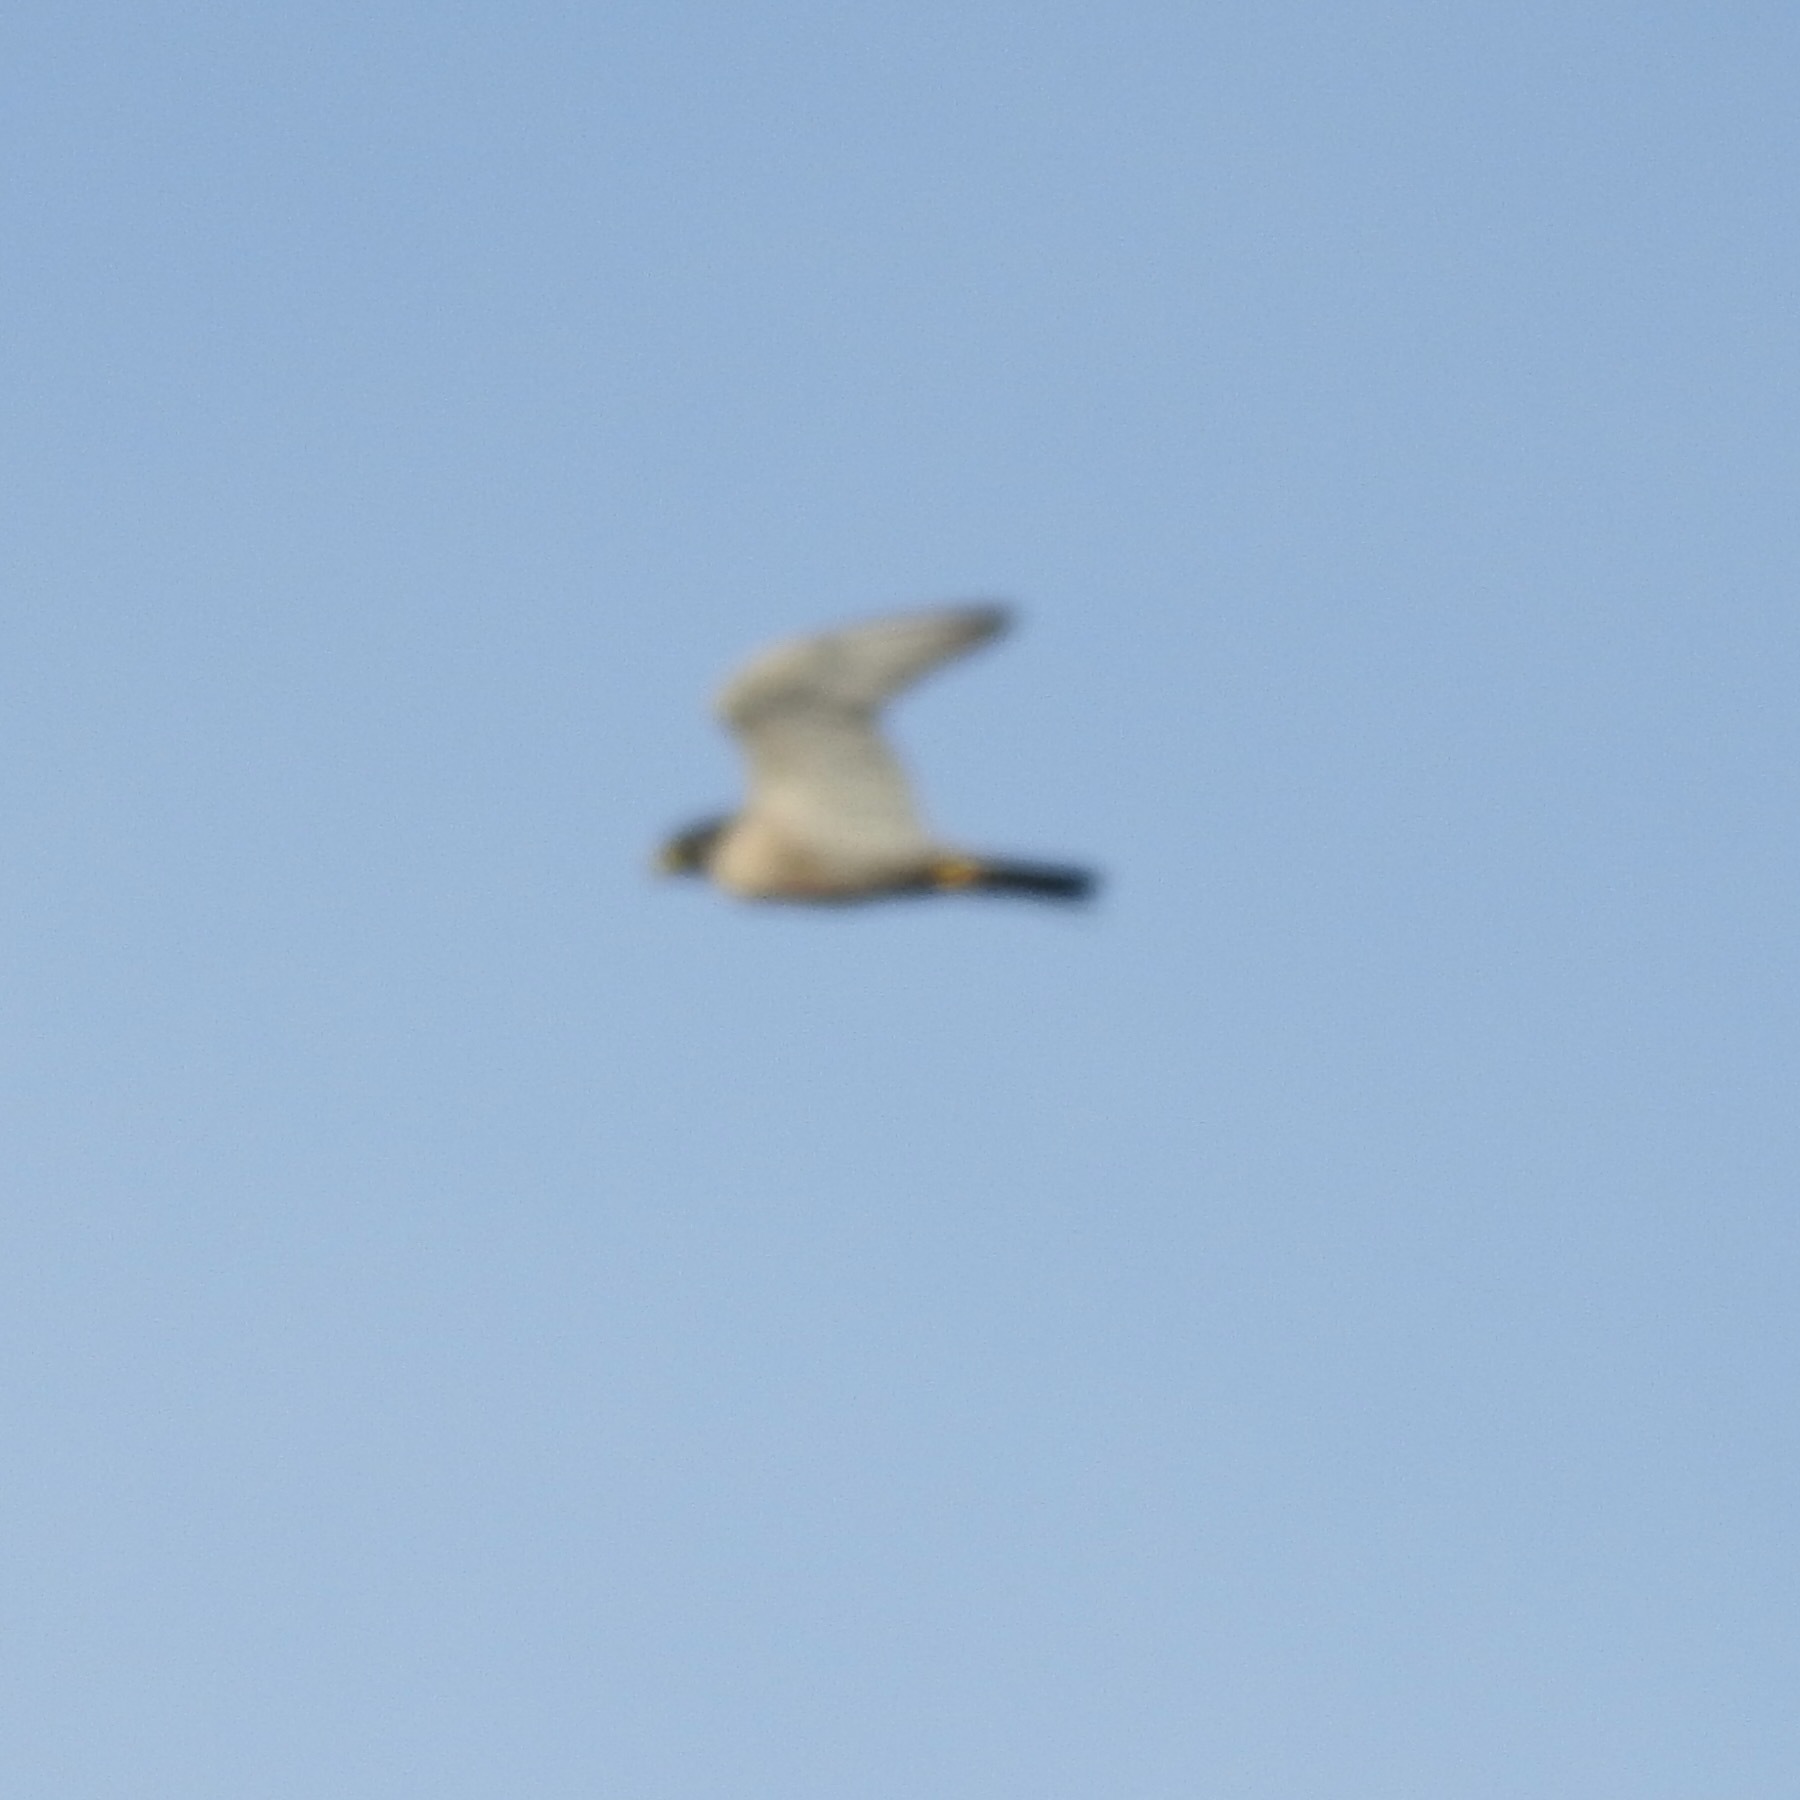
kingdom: Animalia
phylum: Chordata
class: Aves
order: Falconiformes
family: Falconidae
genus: Falco
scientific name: Falco peregrinus
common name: Peregrine falcon
